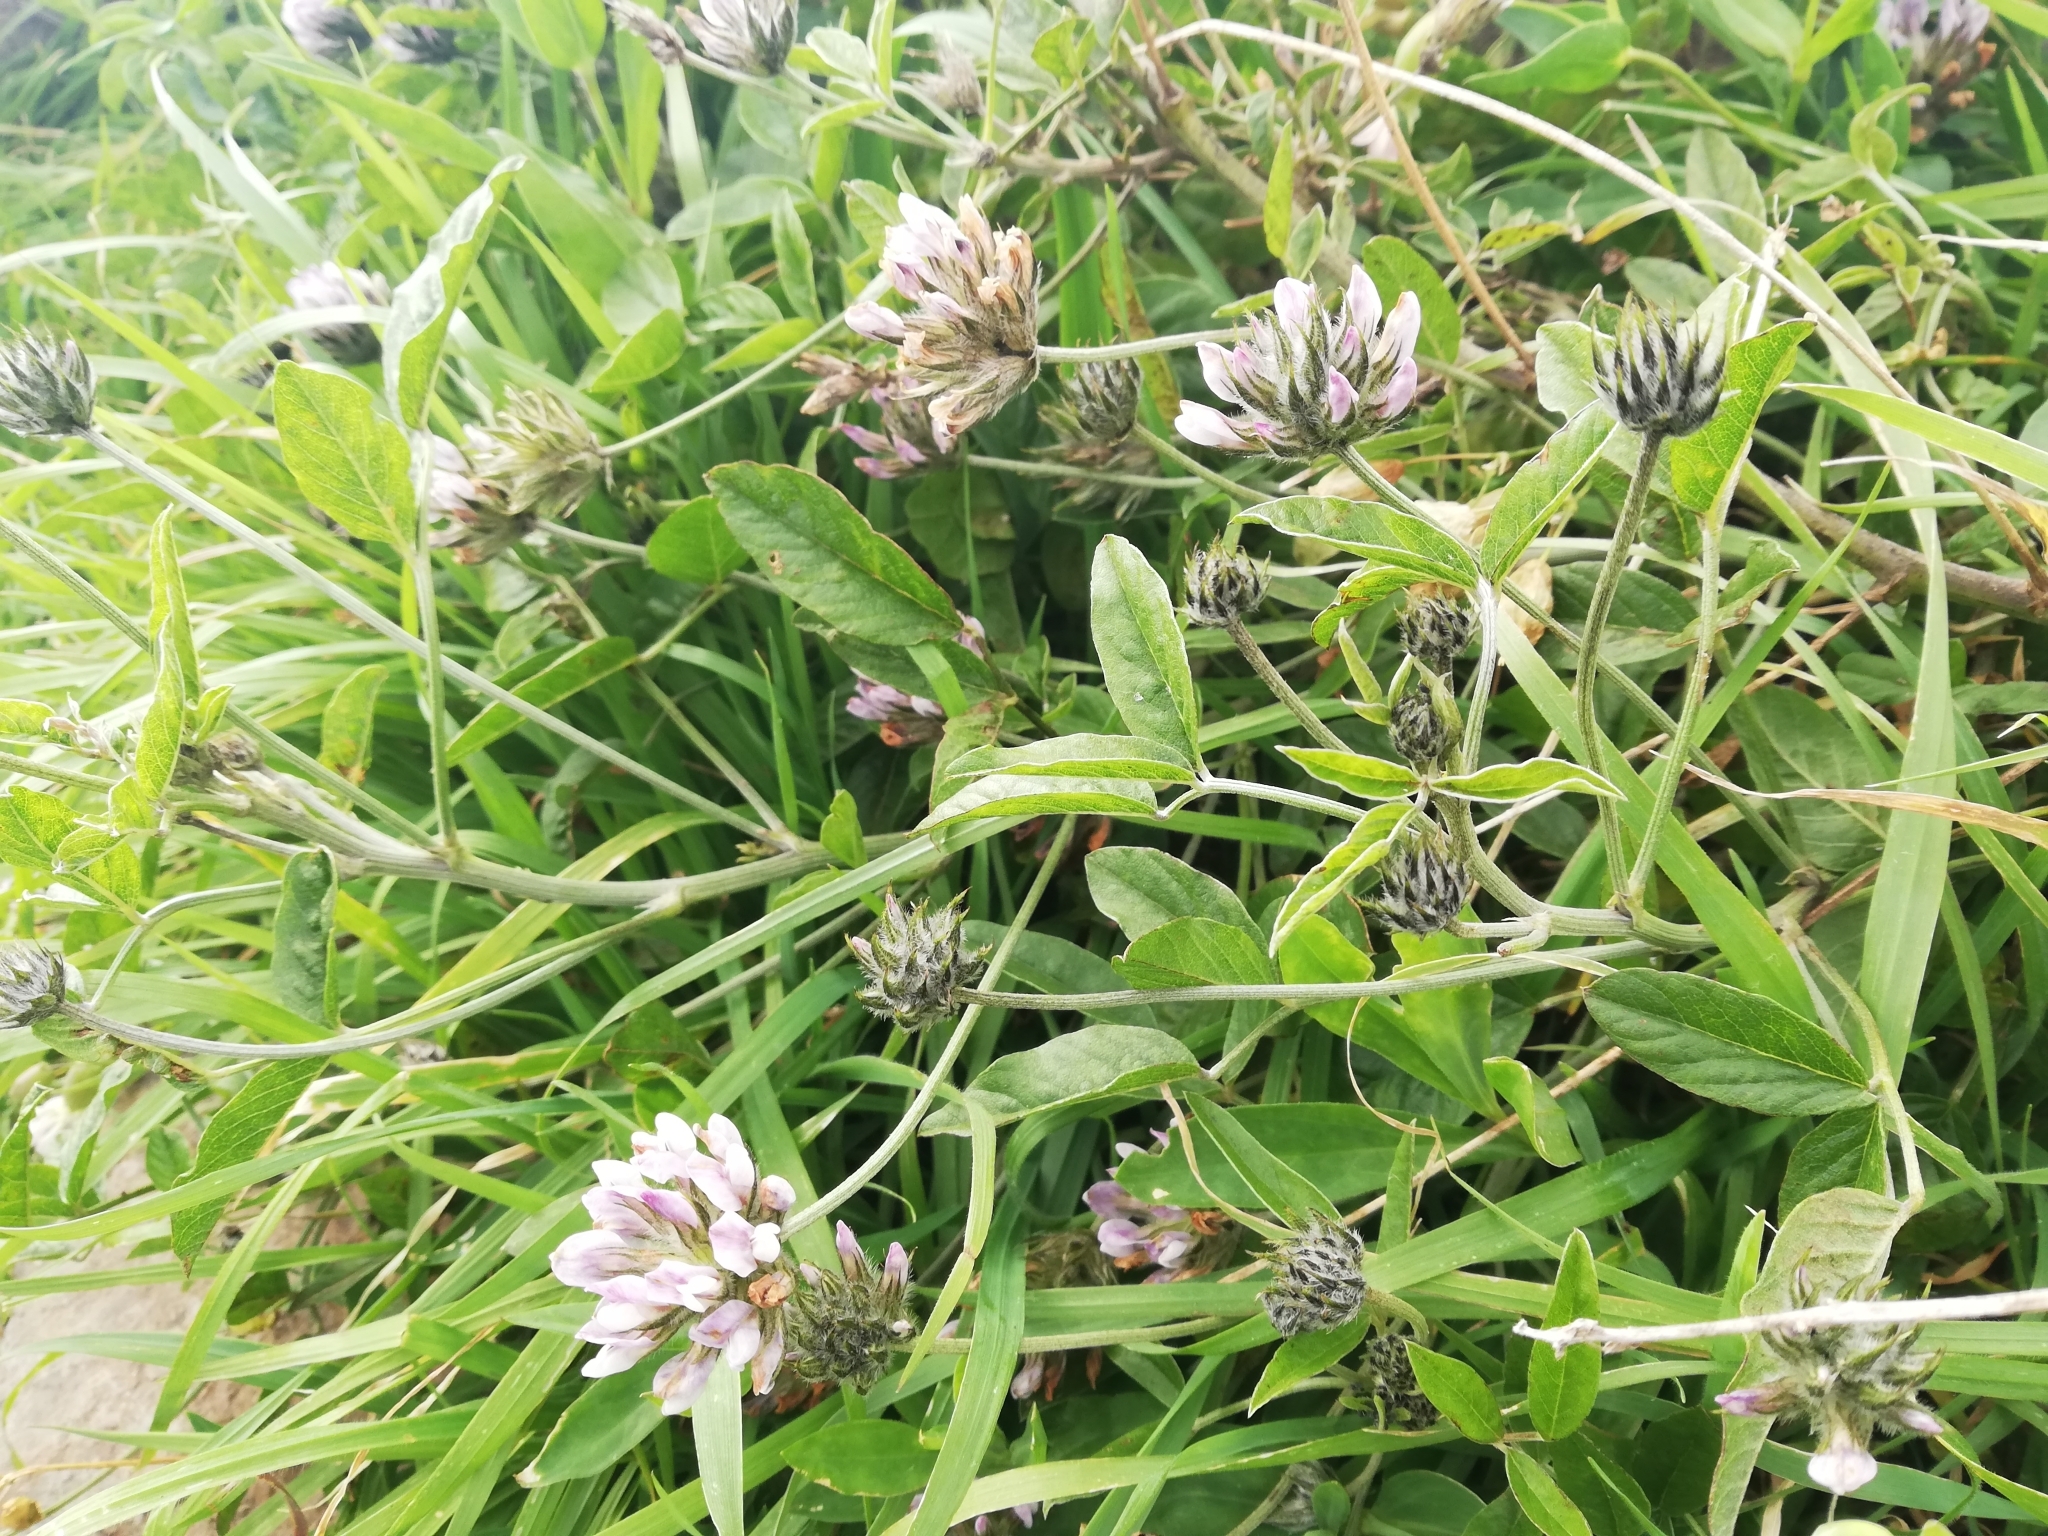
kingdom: Plantae
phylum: Tracheophyta
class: Magnoliopsida
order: Fabales
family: Fabaceae
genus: Bituminaria
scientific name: Bituminaria bituminosa
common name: Arabian pea
